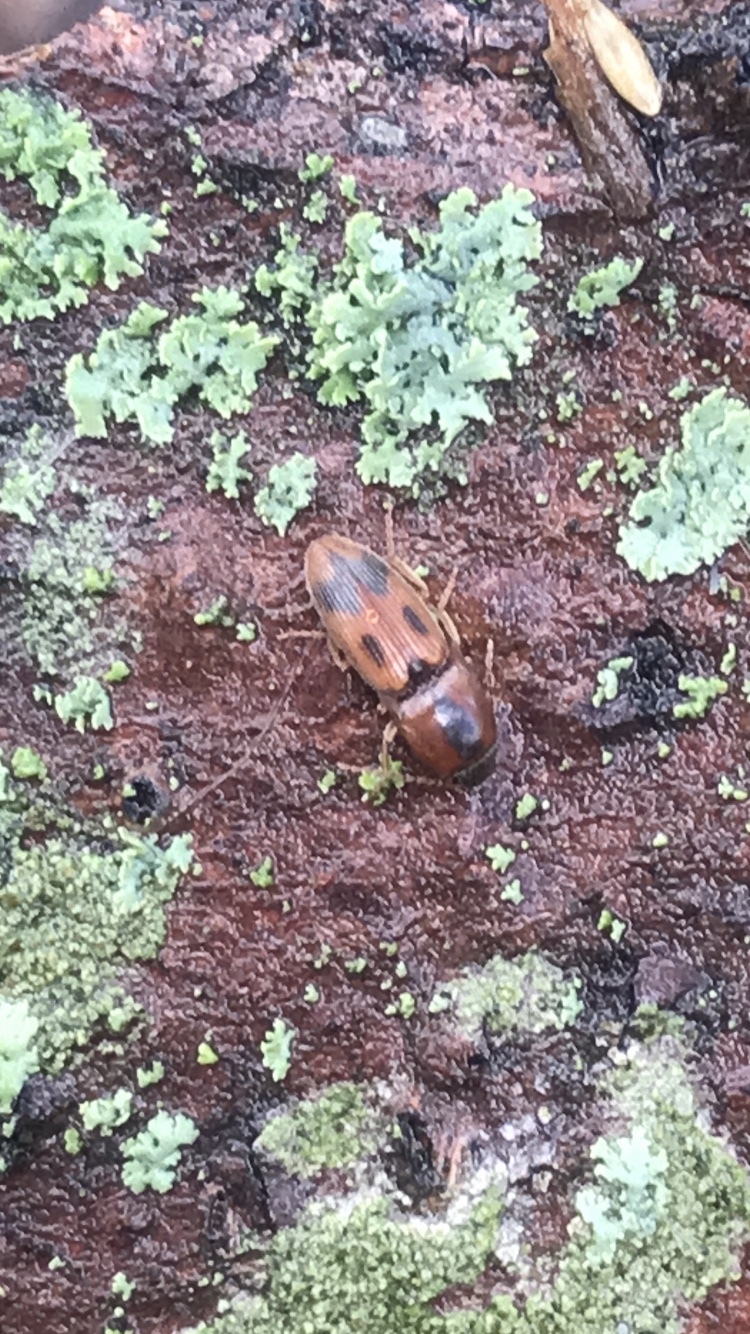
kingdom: Animalia
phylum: Arthropoda
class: Insecta
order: Coleoptera
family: Elateridae
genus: Aeolus
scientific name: Aeolus mellillus
